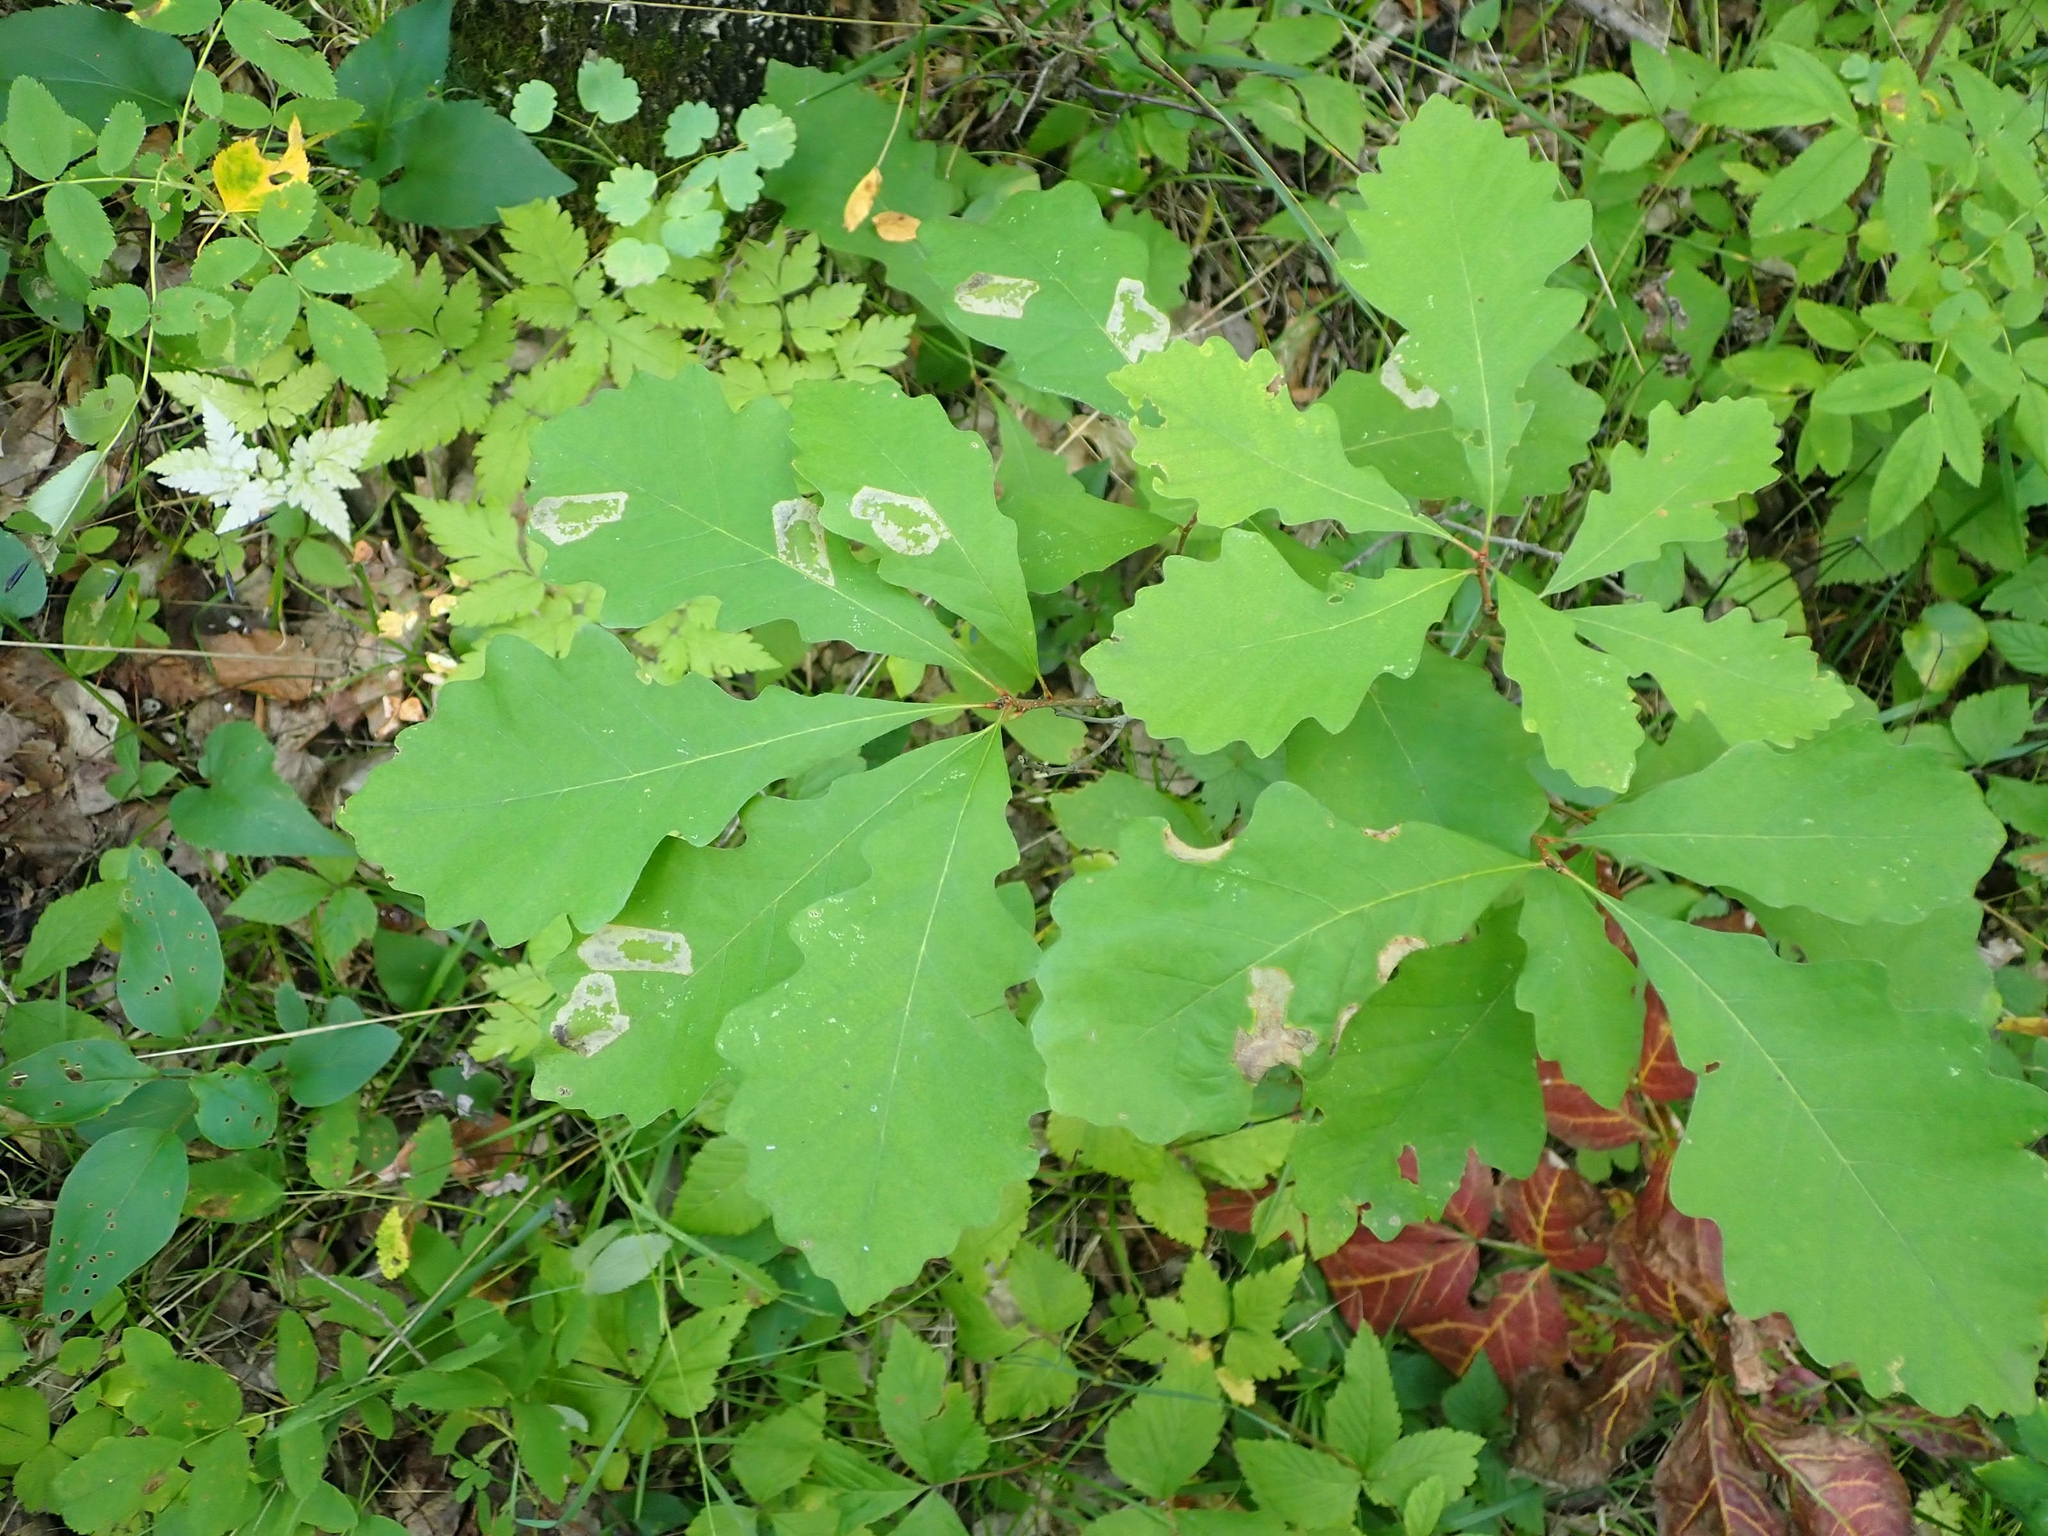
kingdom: Plantae
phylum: Tracheophyta
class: Magnoliopsida
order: Fagales
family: Fagaceae
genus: Quercus
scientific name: Quercus macrocarpa
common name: Bur oak
